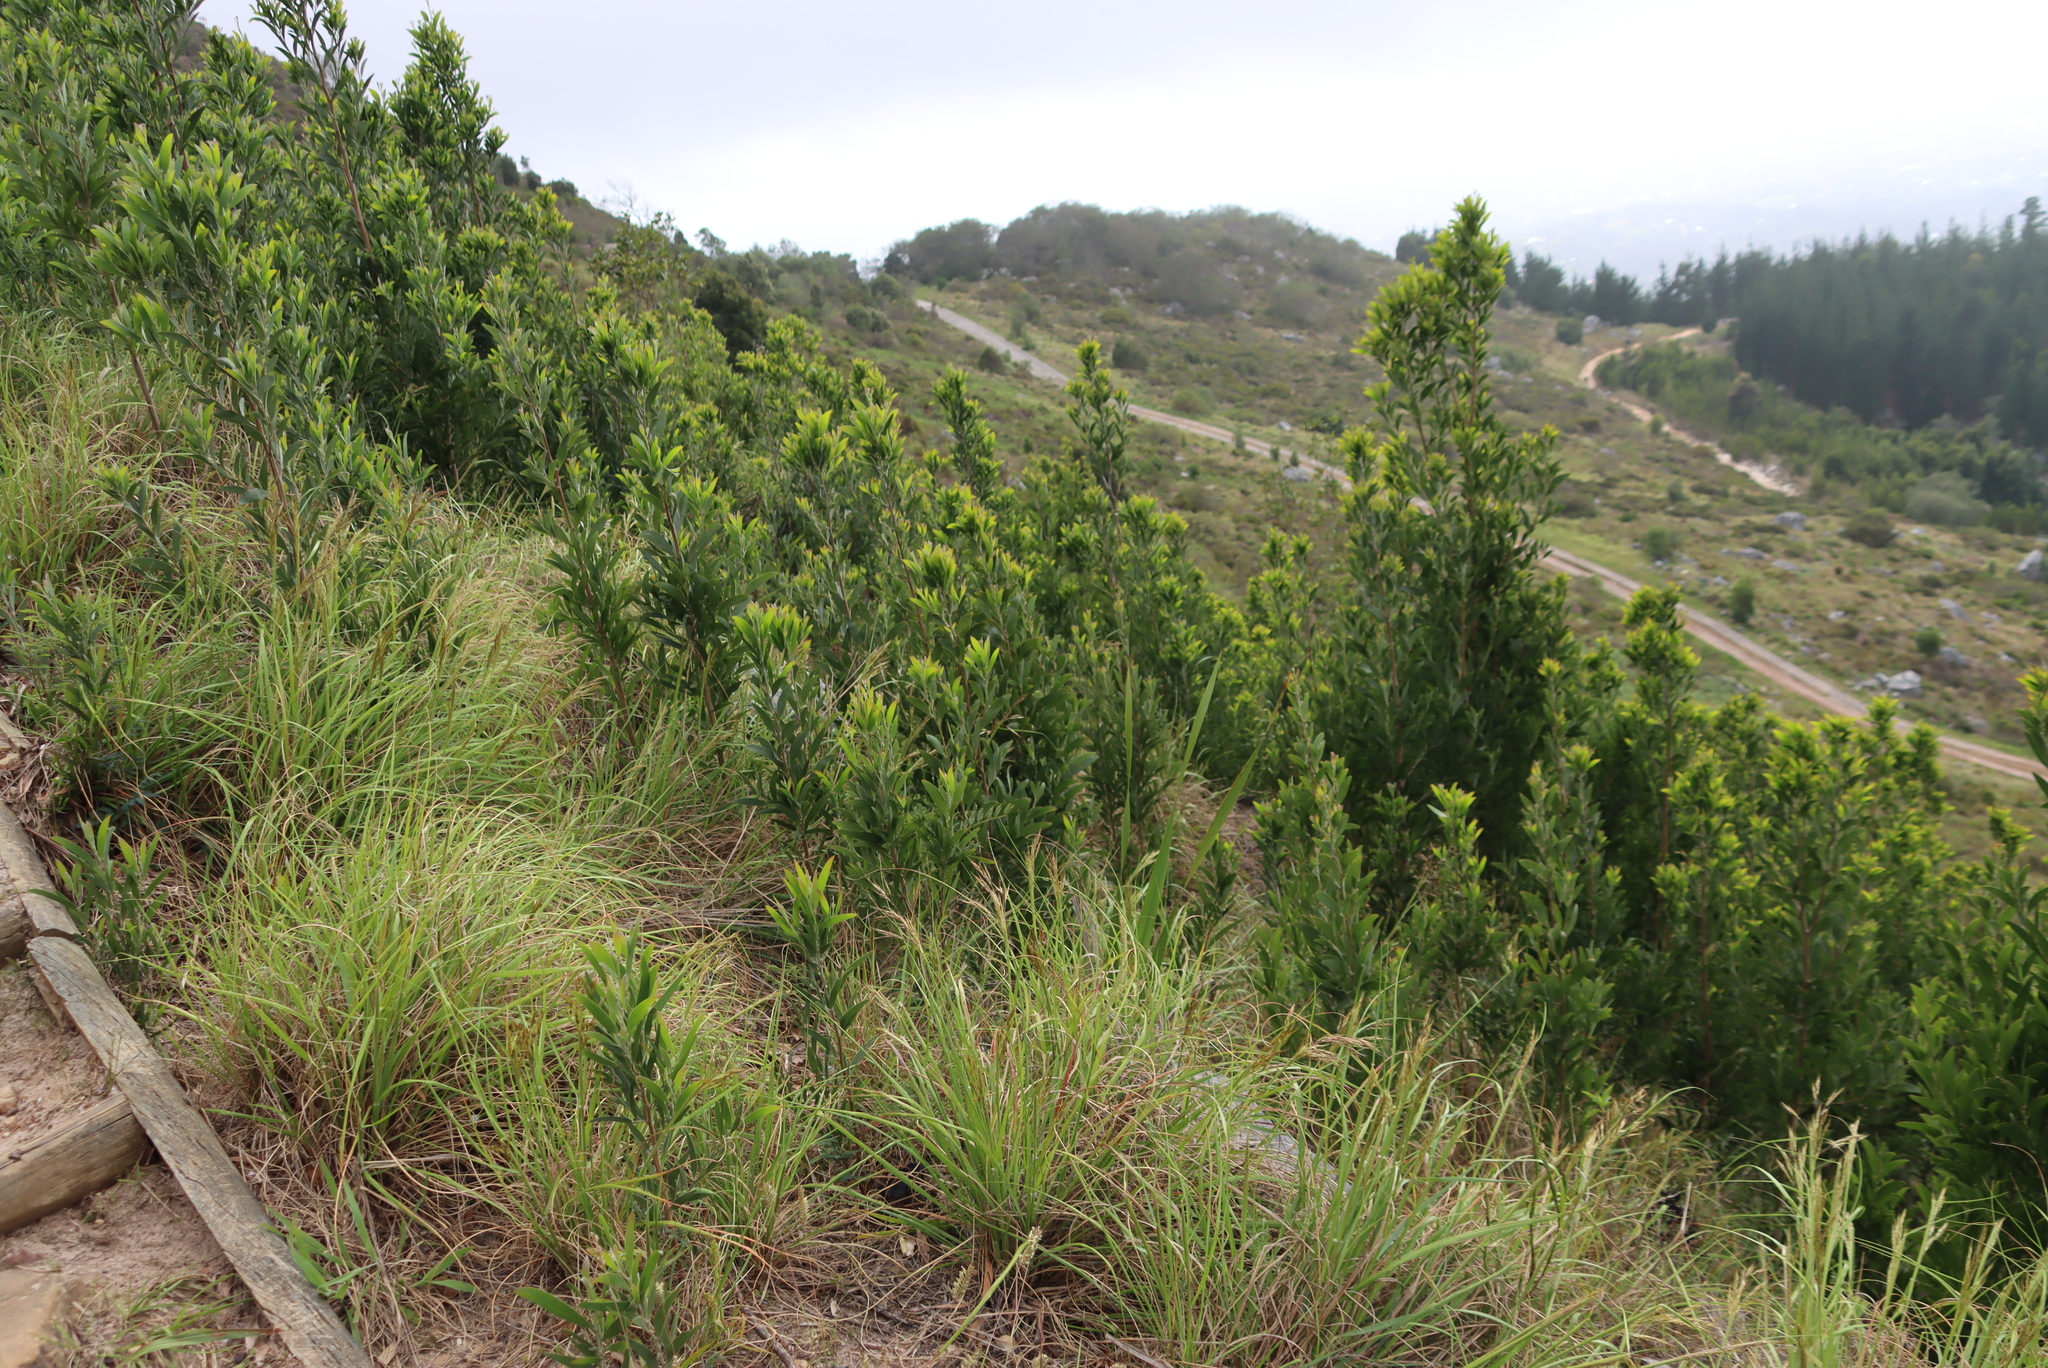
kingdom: Plantae
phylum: Tracheophyta
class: Magnoliopsida
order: Fabales
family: Fabaceae
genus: Acacia
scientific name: Acacia melanoxylon
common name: Blackwood
